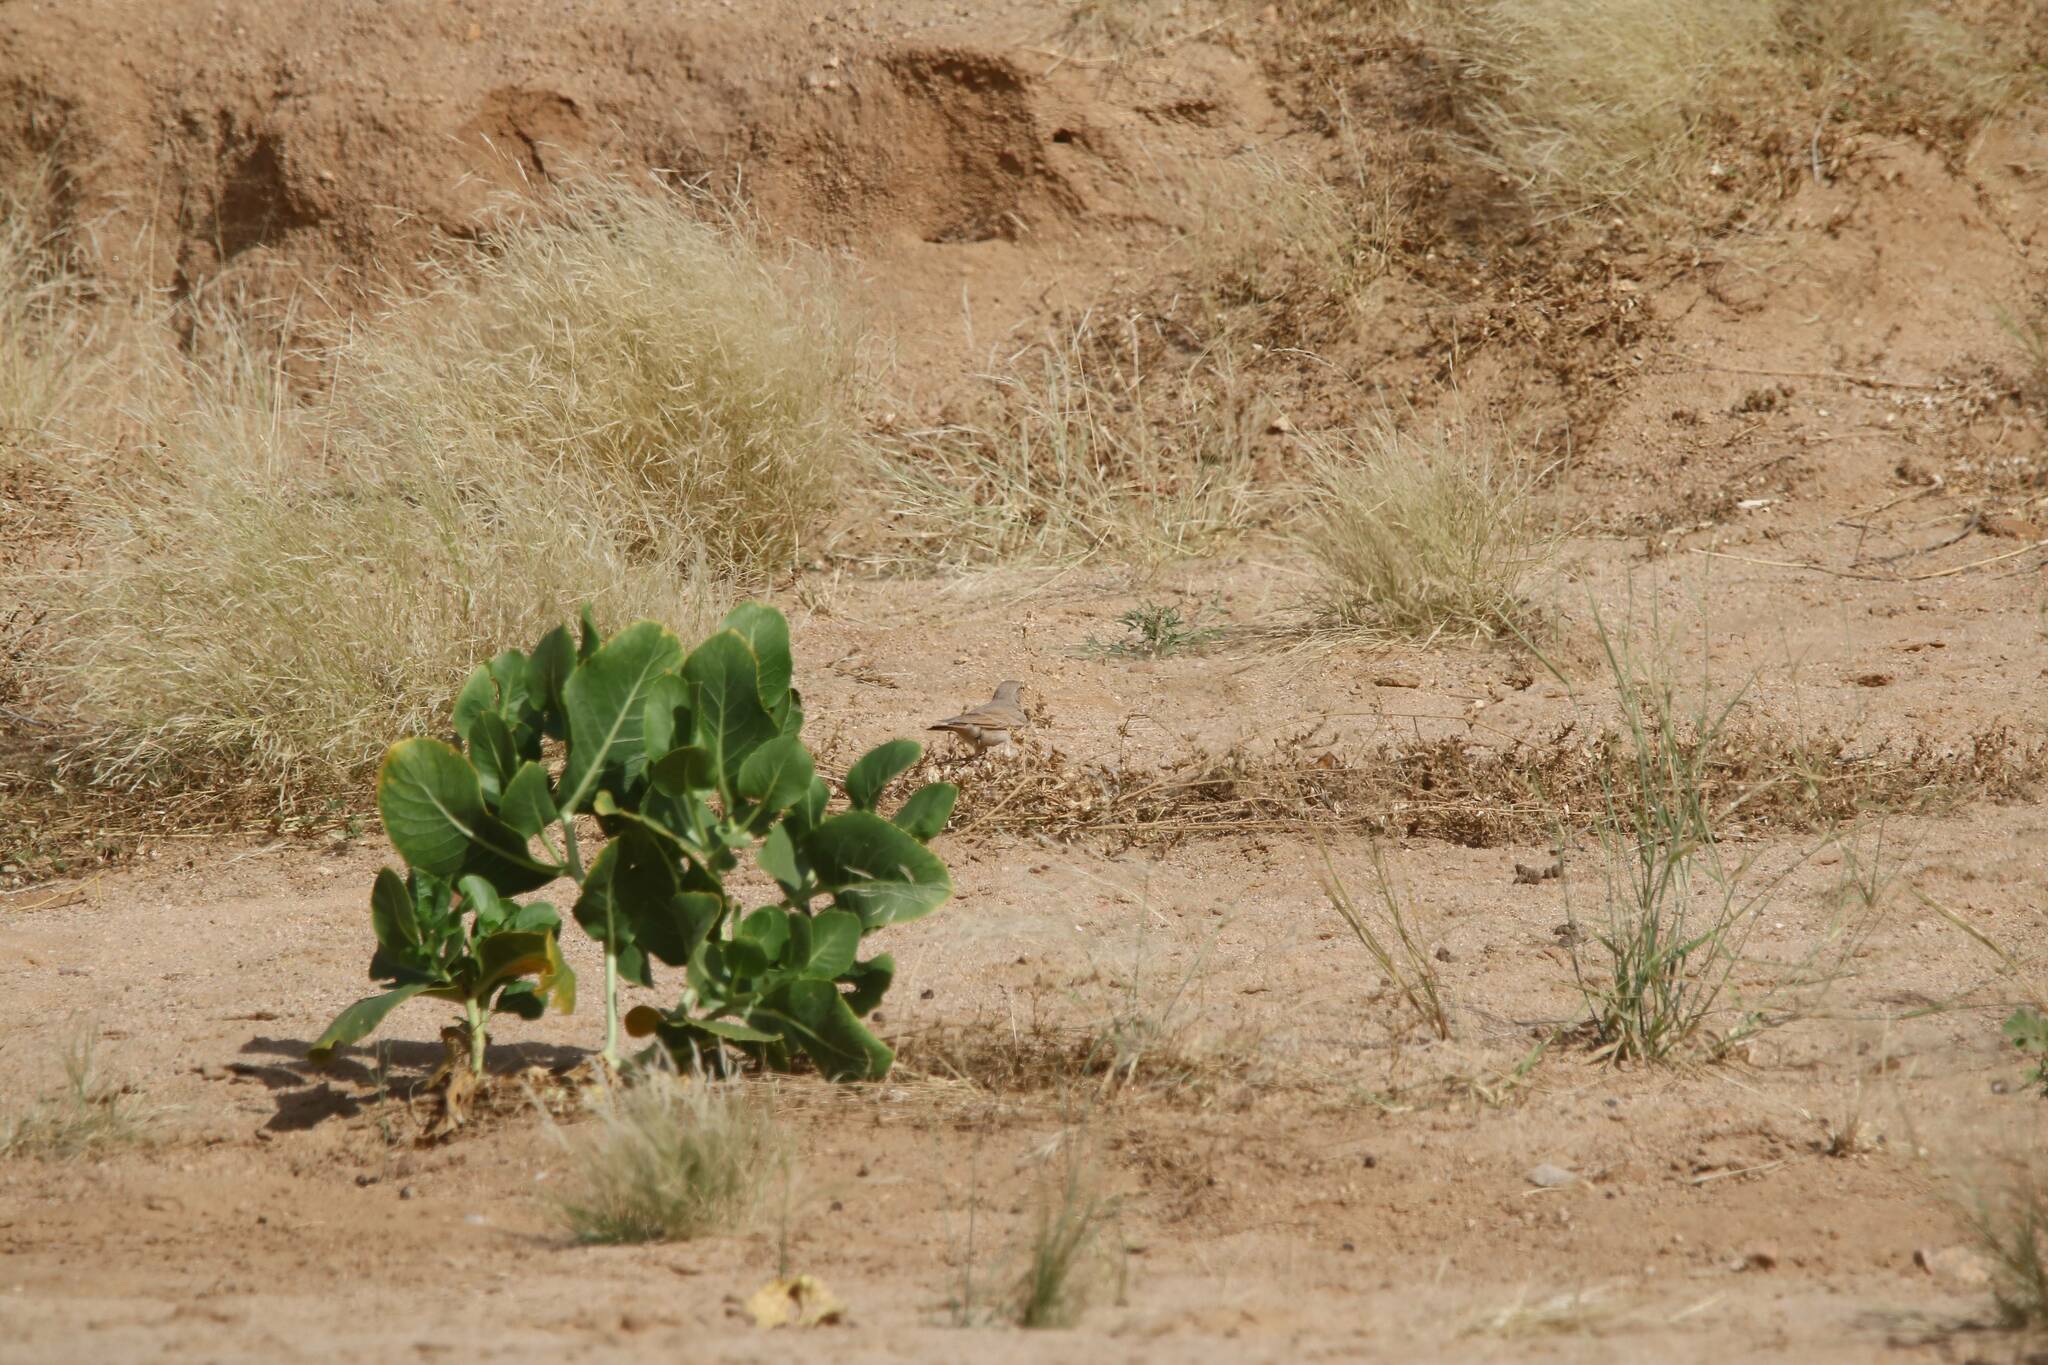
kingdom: Plantae
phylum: Tracheophyta
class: Magnoliopsida
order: Gentianales
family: Apocynaceae
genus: Calotropis
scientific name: Calotropis procera
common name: Roostertree
